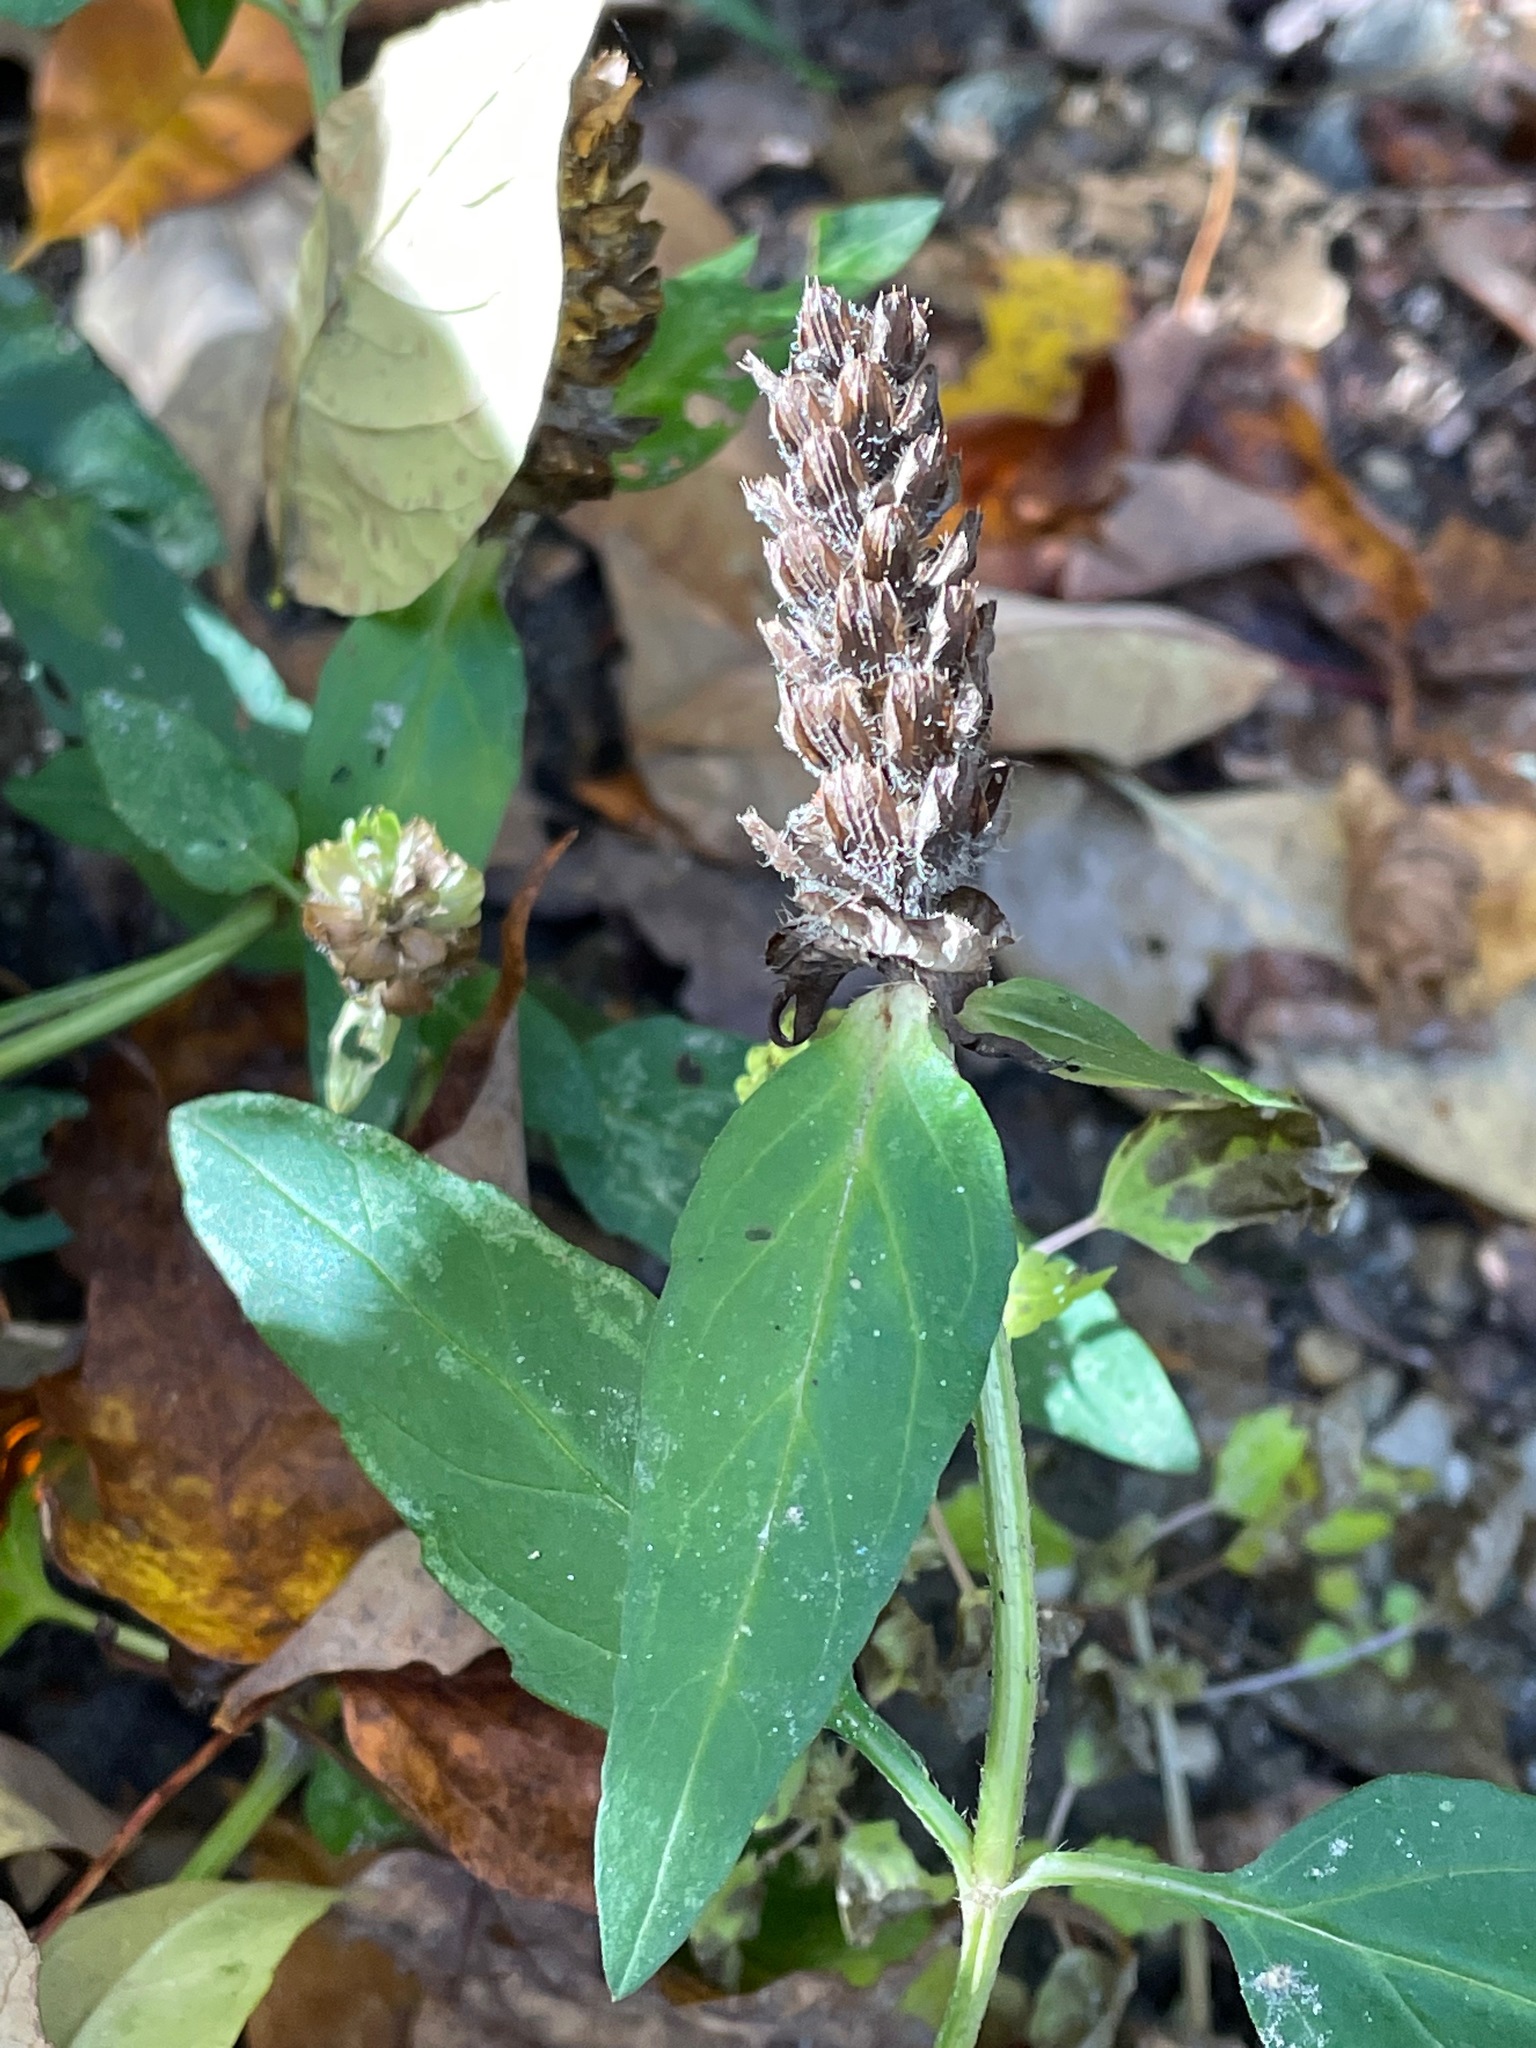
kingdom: Plantae
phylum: Tracheophyta
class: Magnoliopsida
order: Lamiales
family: Lamiaceae
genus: Prunella
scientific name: Prunella vulgaris
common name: Heal-all
